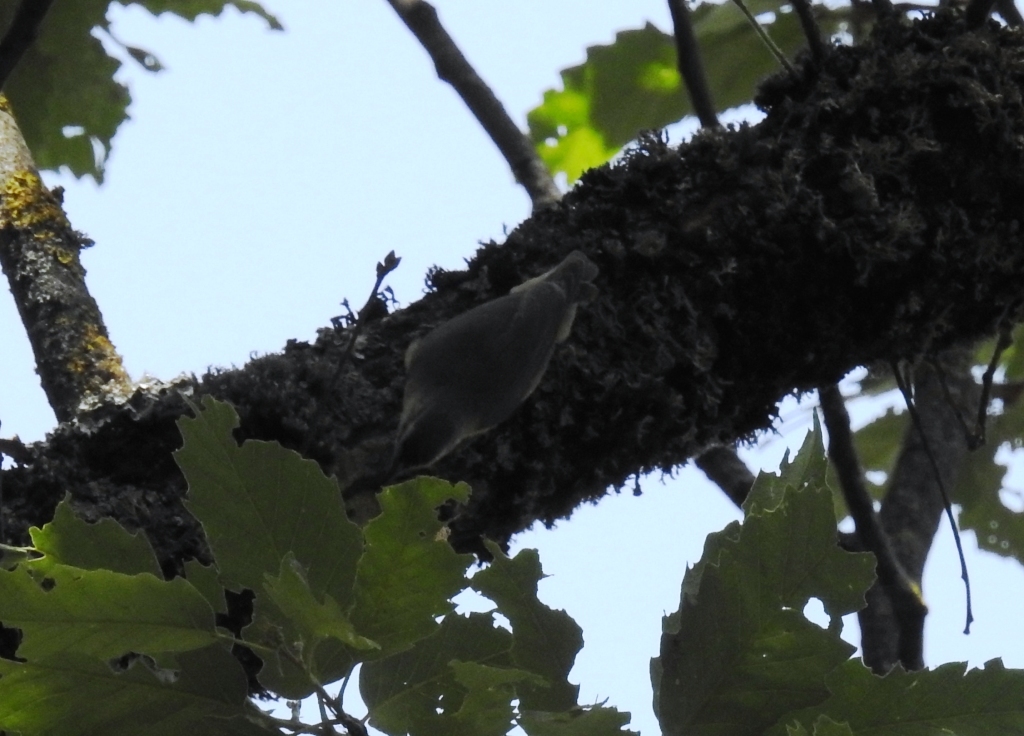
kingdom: Animalia
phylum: Chordata
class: Aves
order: Passeriformes
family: Sittidae
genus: Sitta
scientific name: Sitta ledanti
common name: Algerian nuthatch
